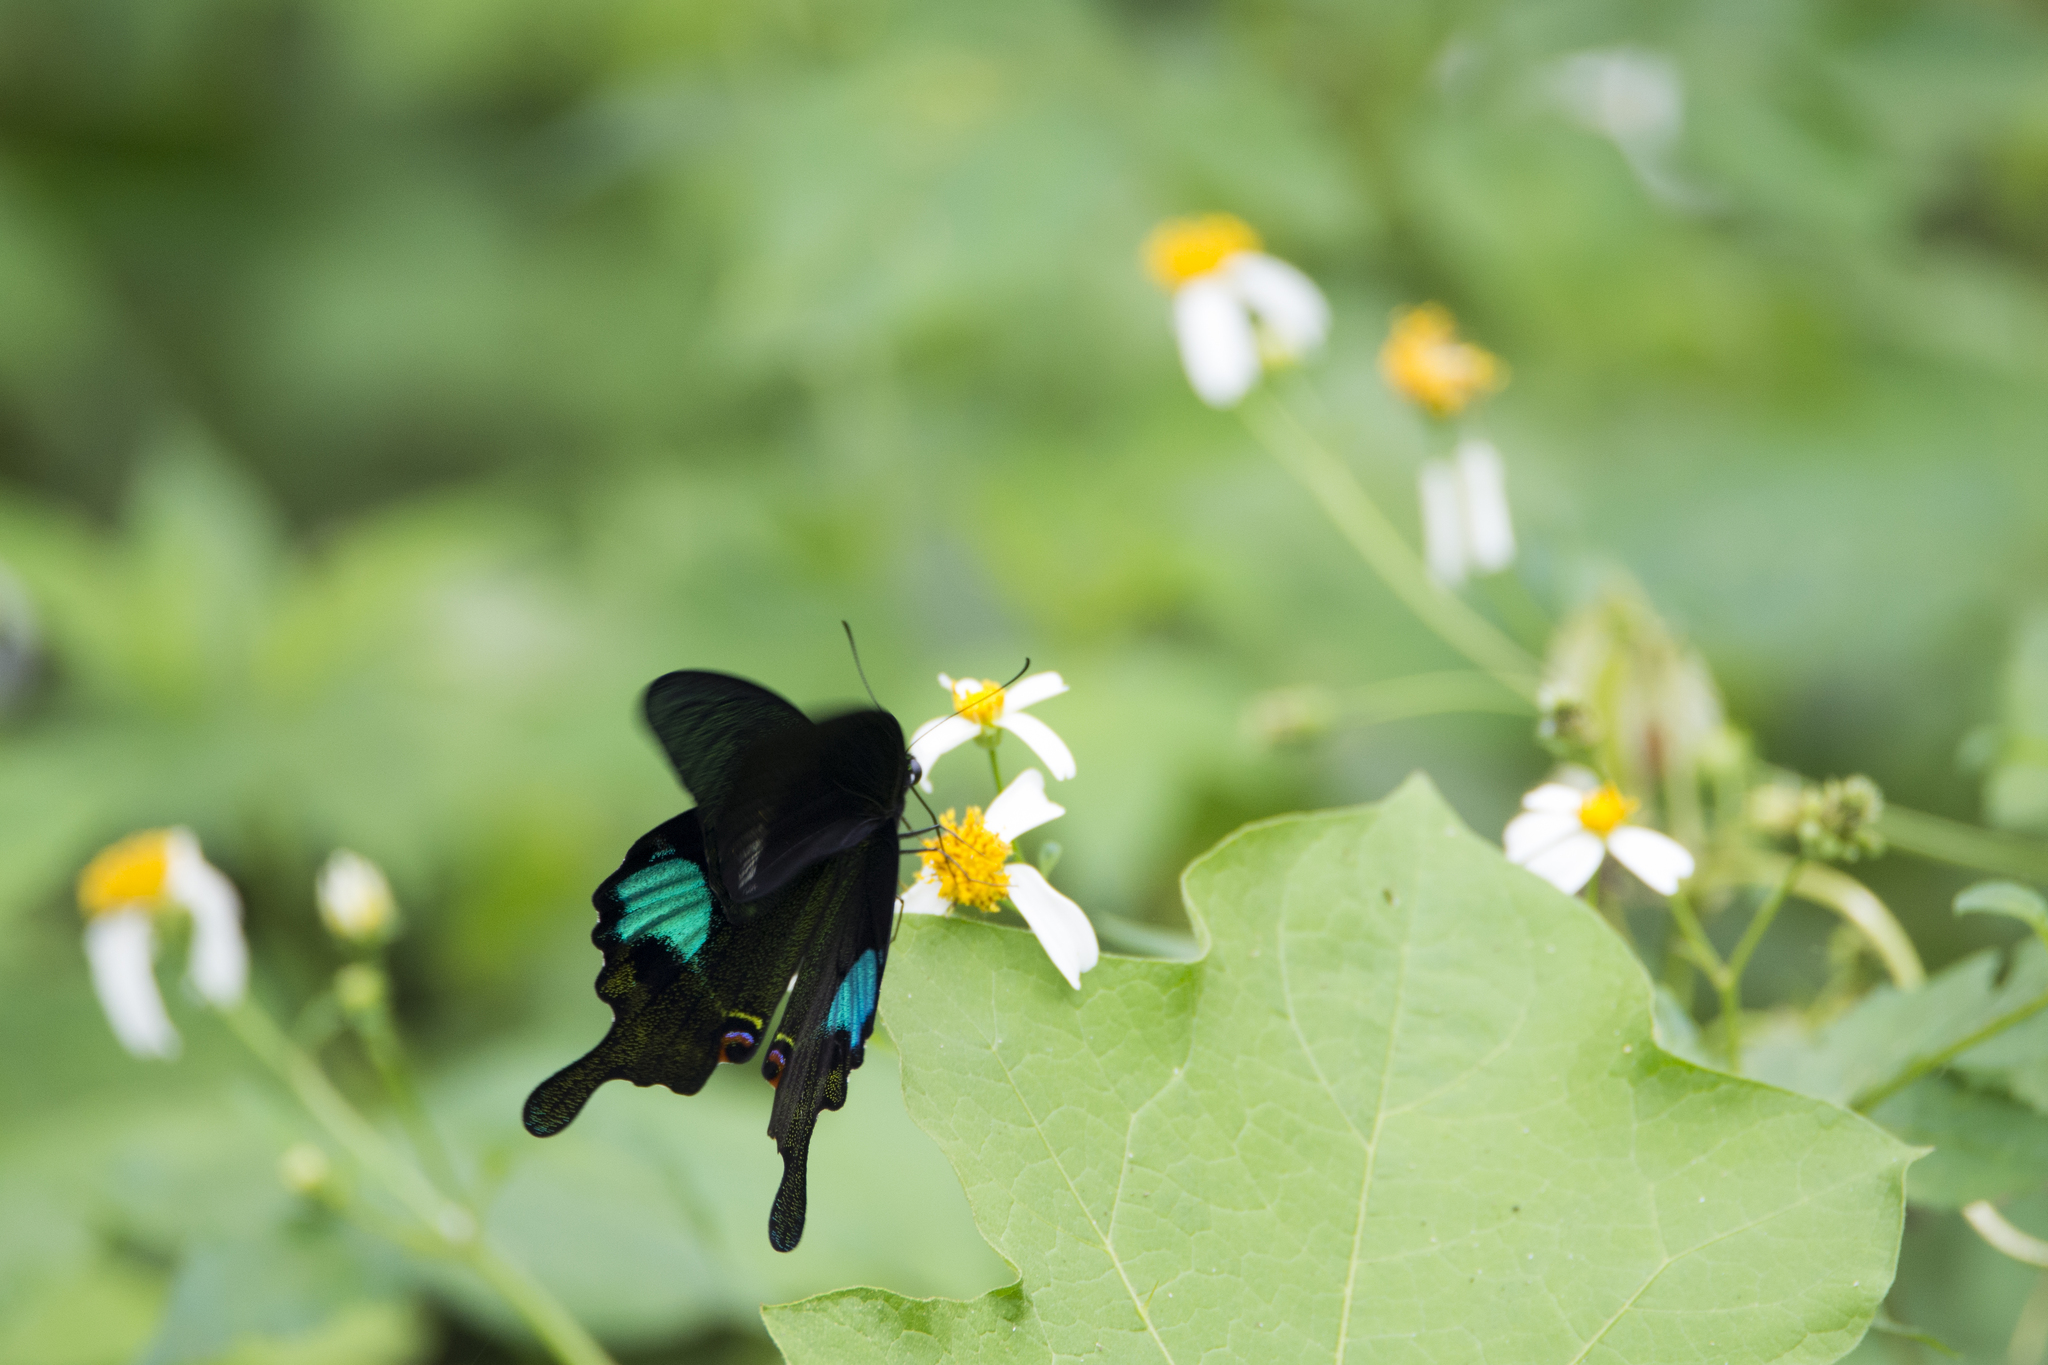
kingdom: Animalia
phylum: Arthropoda
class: Insecta
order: Lepidoptera
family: Papilionidae
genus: Papilio
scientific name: Papilio paris
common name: Paris peacock
